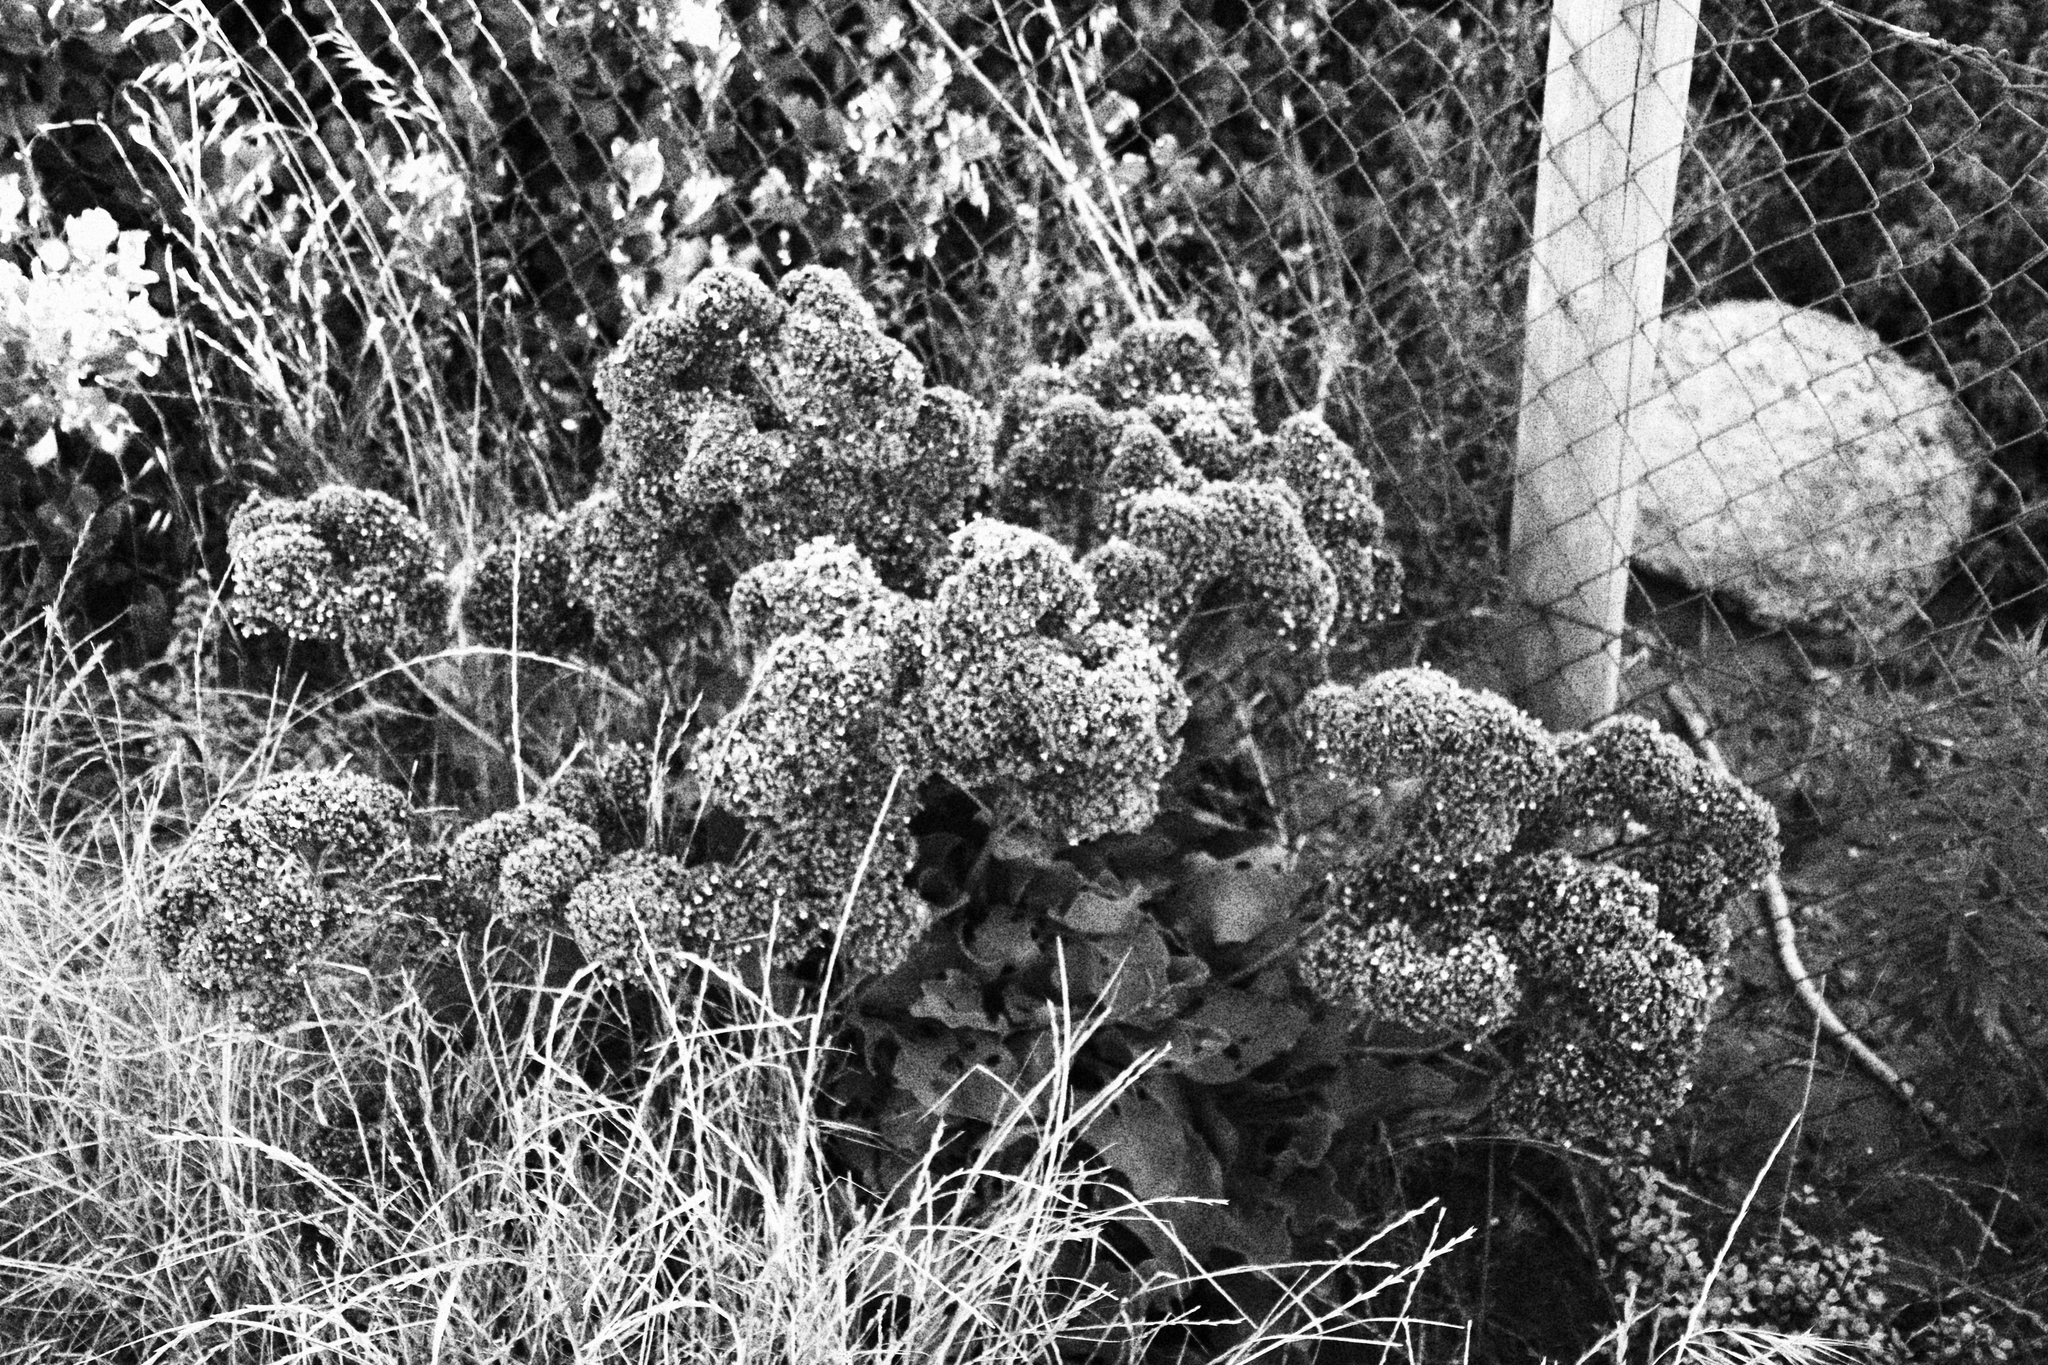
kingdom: Plantae
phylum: Tracheophyta
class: Magnoliopsida
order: Caryophyllales
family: Plumbaginaceae
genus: Limonium
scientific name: Limonium perezii
